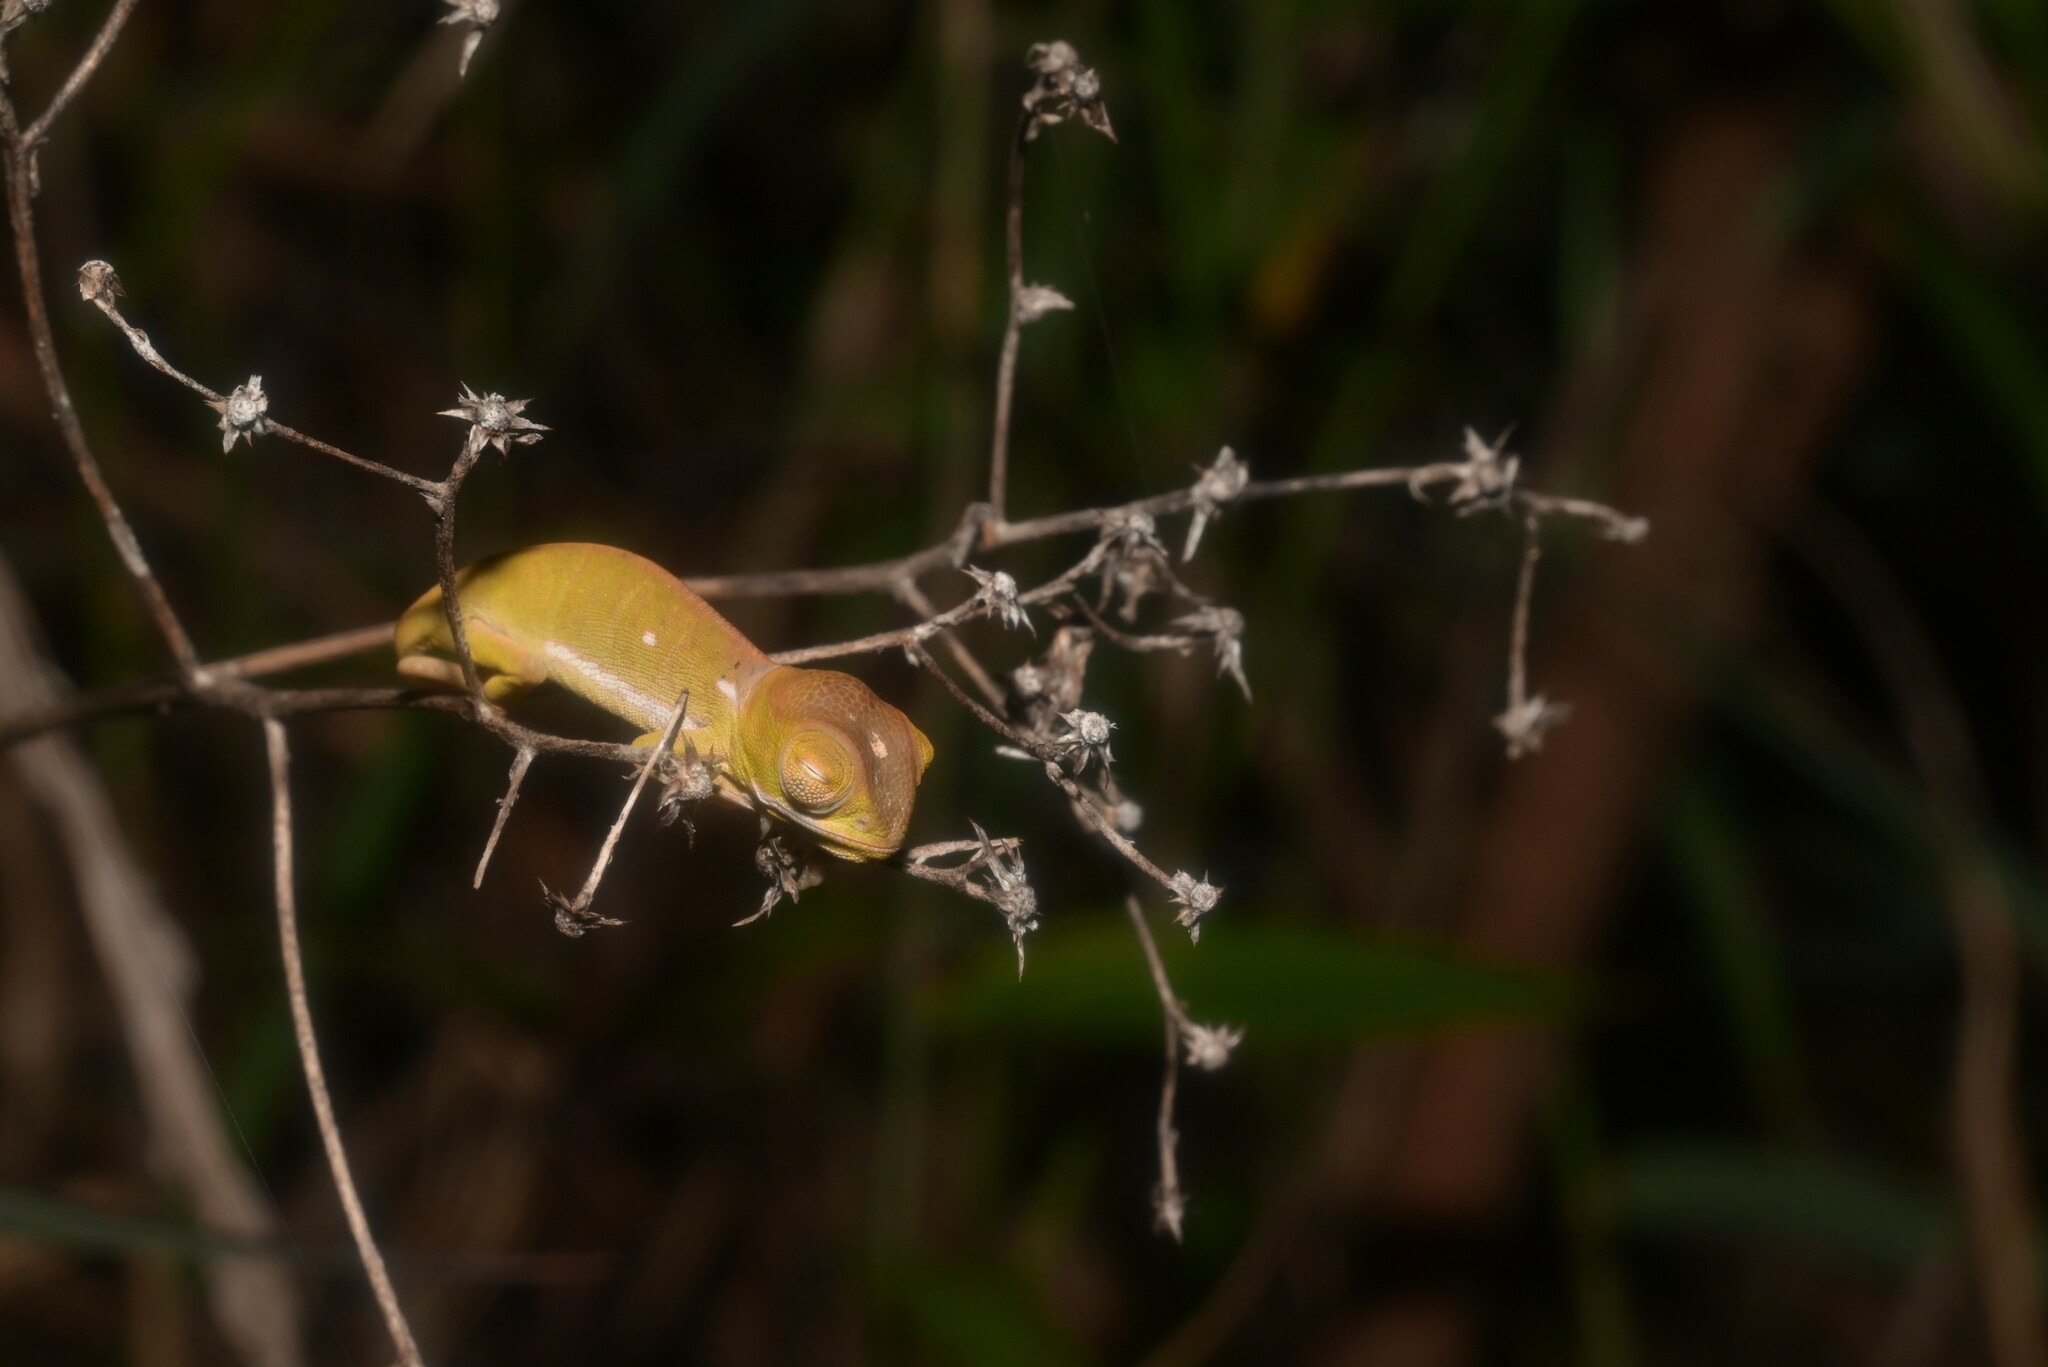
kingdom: Animalia
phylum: Chordata
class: Squamata
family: Chamaeleonidae
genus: Chamaeleo
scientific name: Chamaeleo dilepis
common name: Flapneck chameleon
